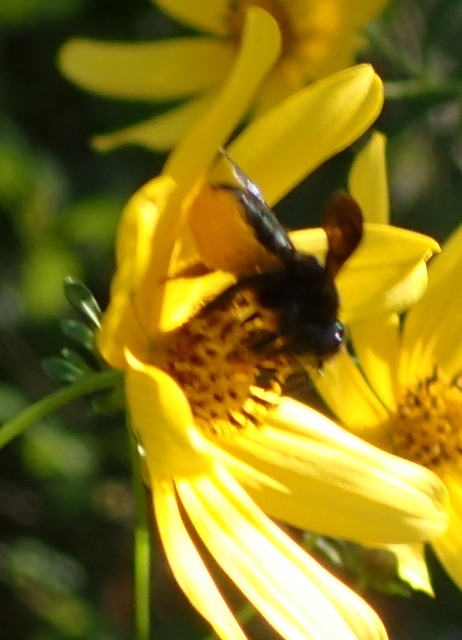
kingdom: Animalia
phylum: Arthropoda
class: Insecta
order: Hymenoptera
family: Megachilidae
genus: Megachile
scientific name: Megachile xylocopoides
